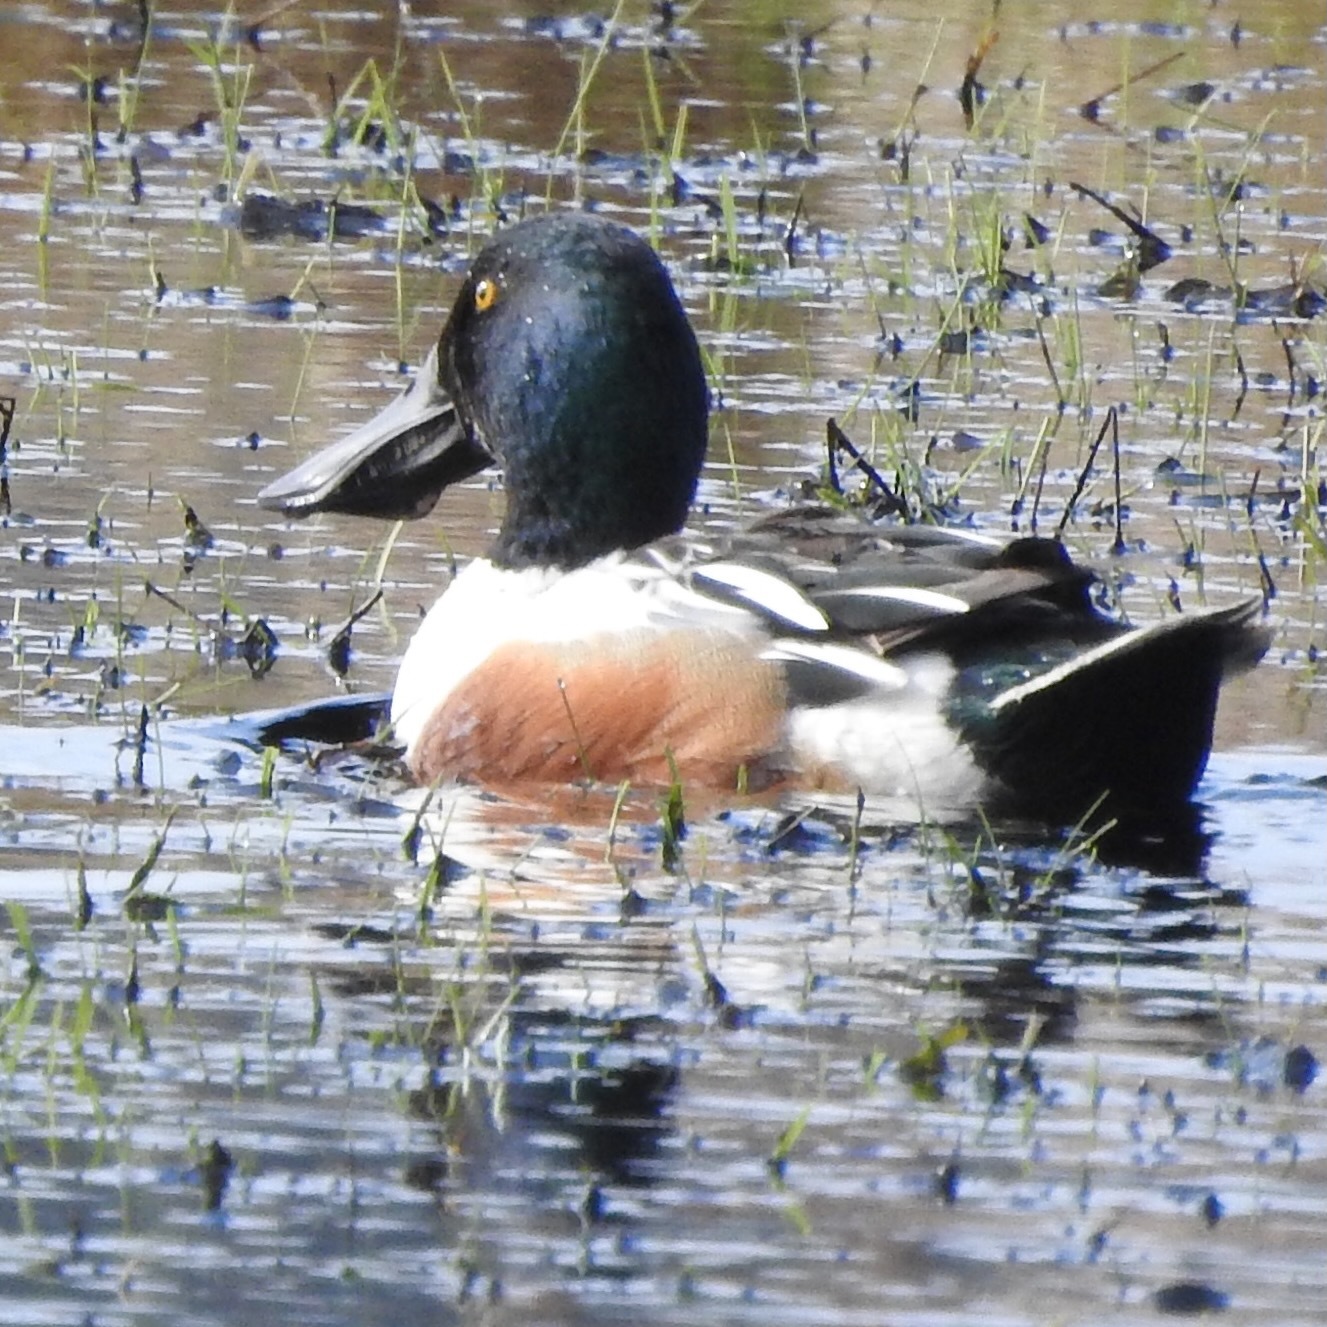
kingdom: Animalia
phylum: Chordata
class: Aves
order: Anseriformes
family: Anatidae
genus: Spatula
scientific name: Spatula clypeata
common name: Northern shoveler
